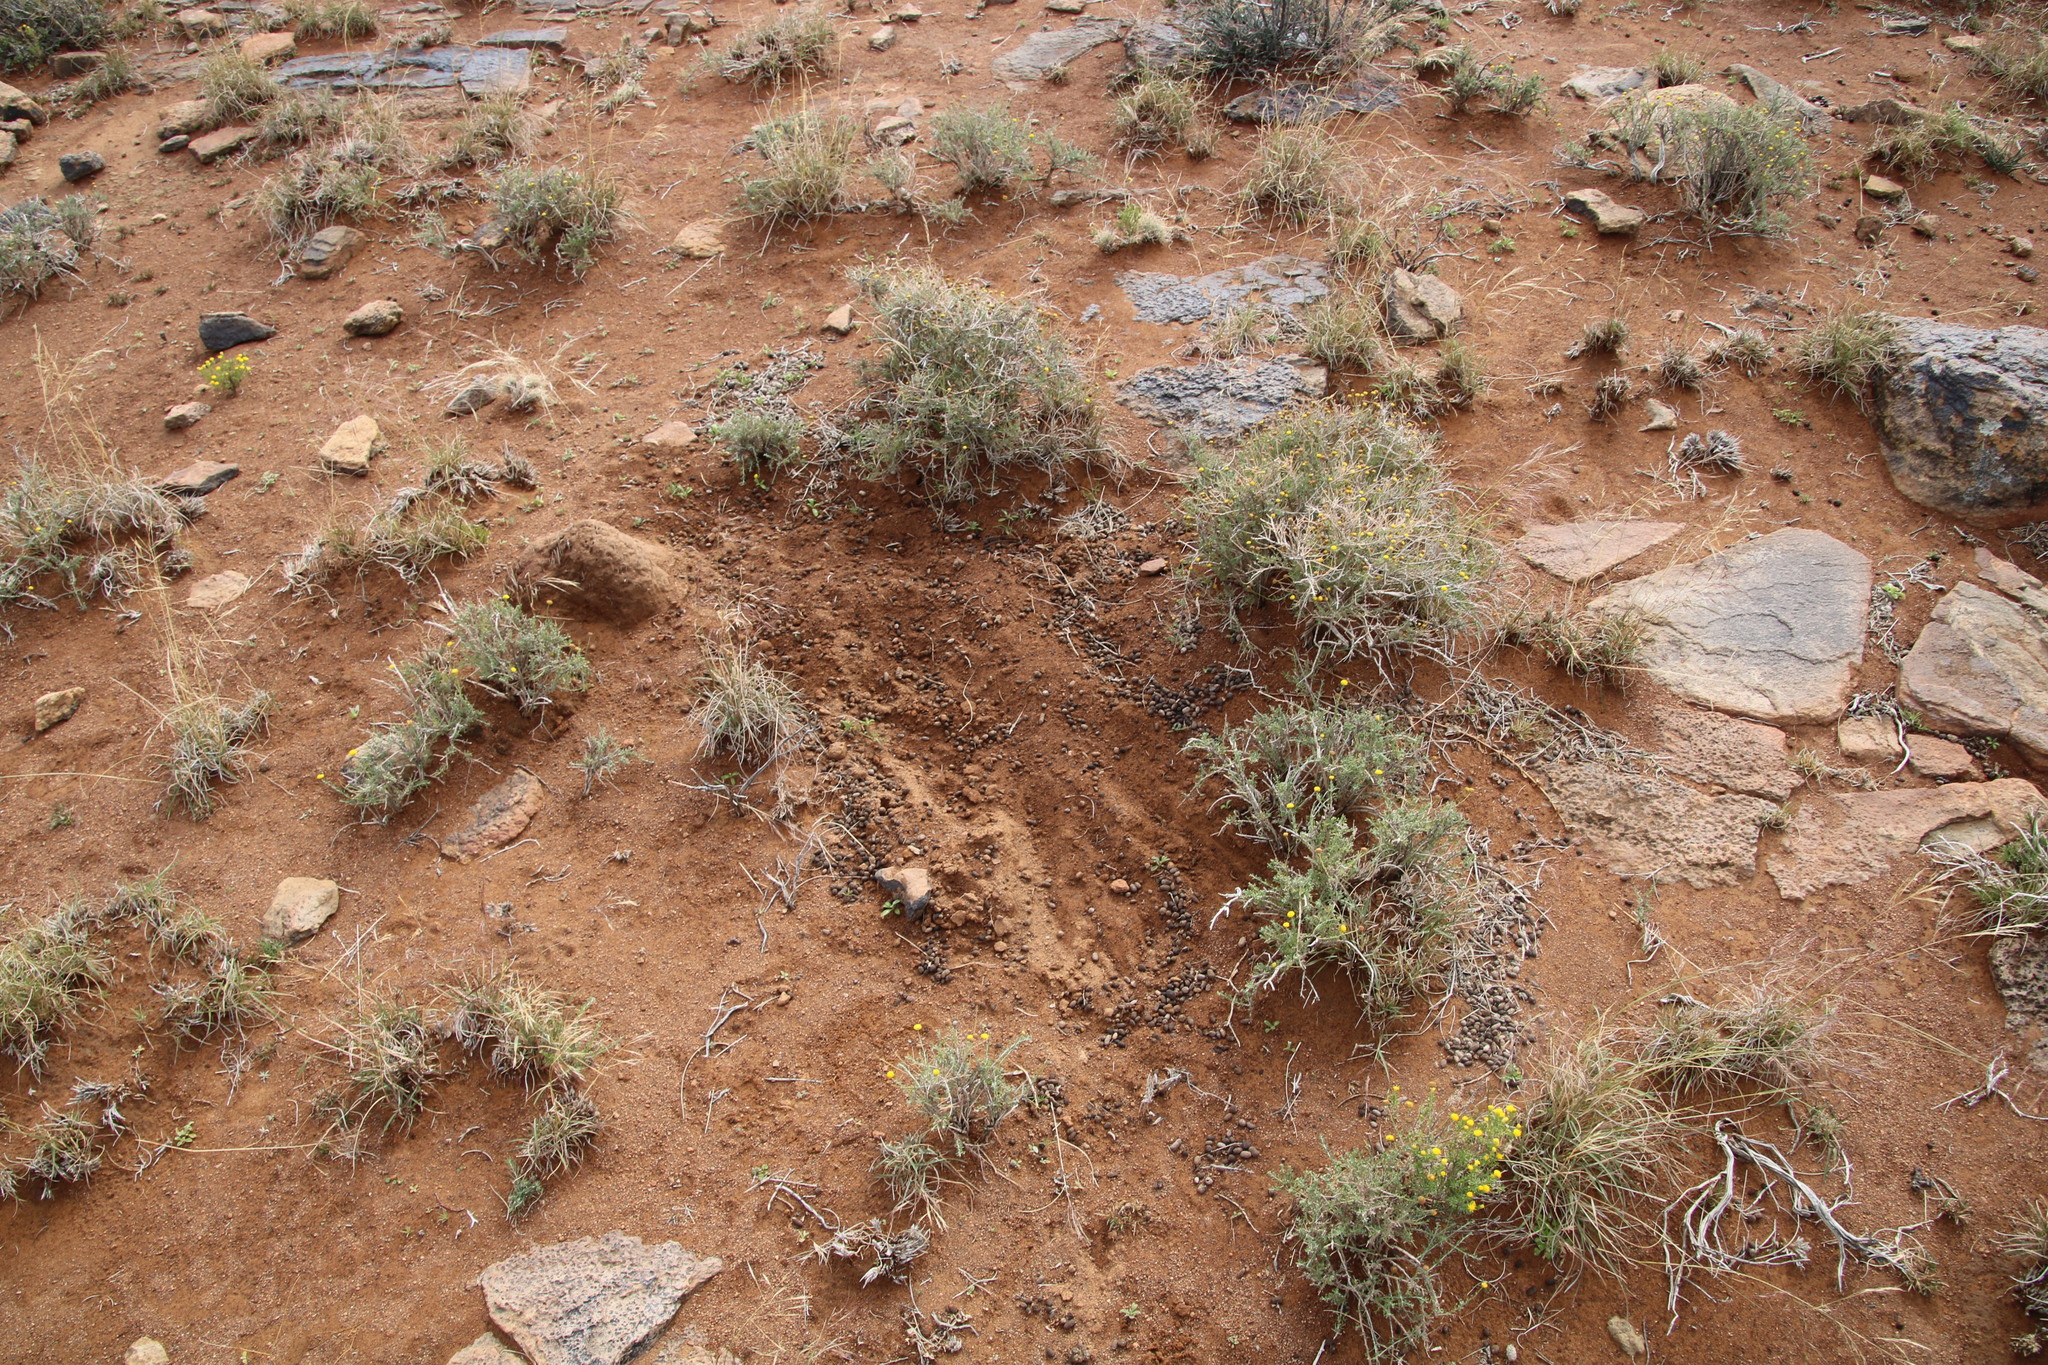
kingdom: Animalia
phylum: Chordata
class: Mammalia
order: Artiodactyla
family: Bovidae
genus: Sylvicapra
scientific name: Sylvicapra grimmia
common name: Bush duiker
